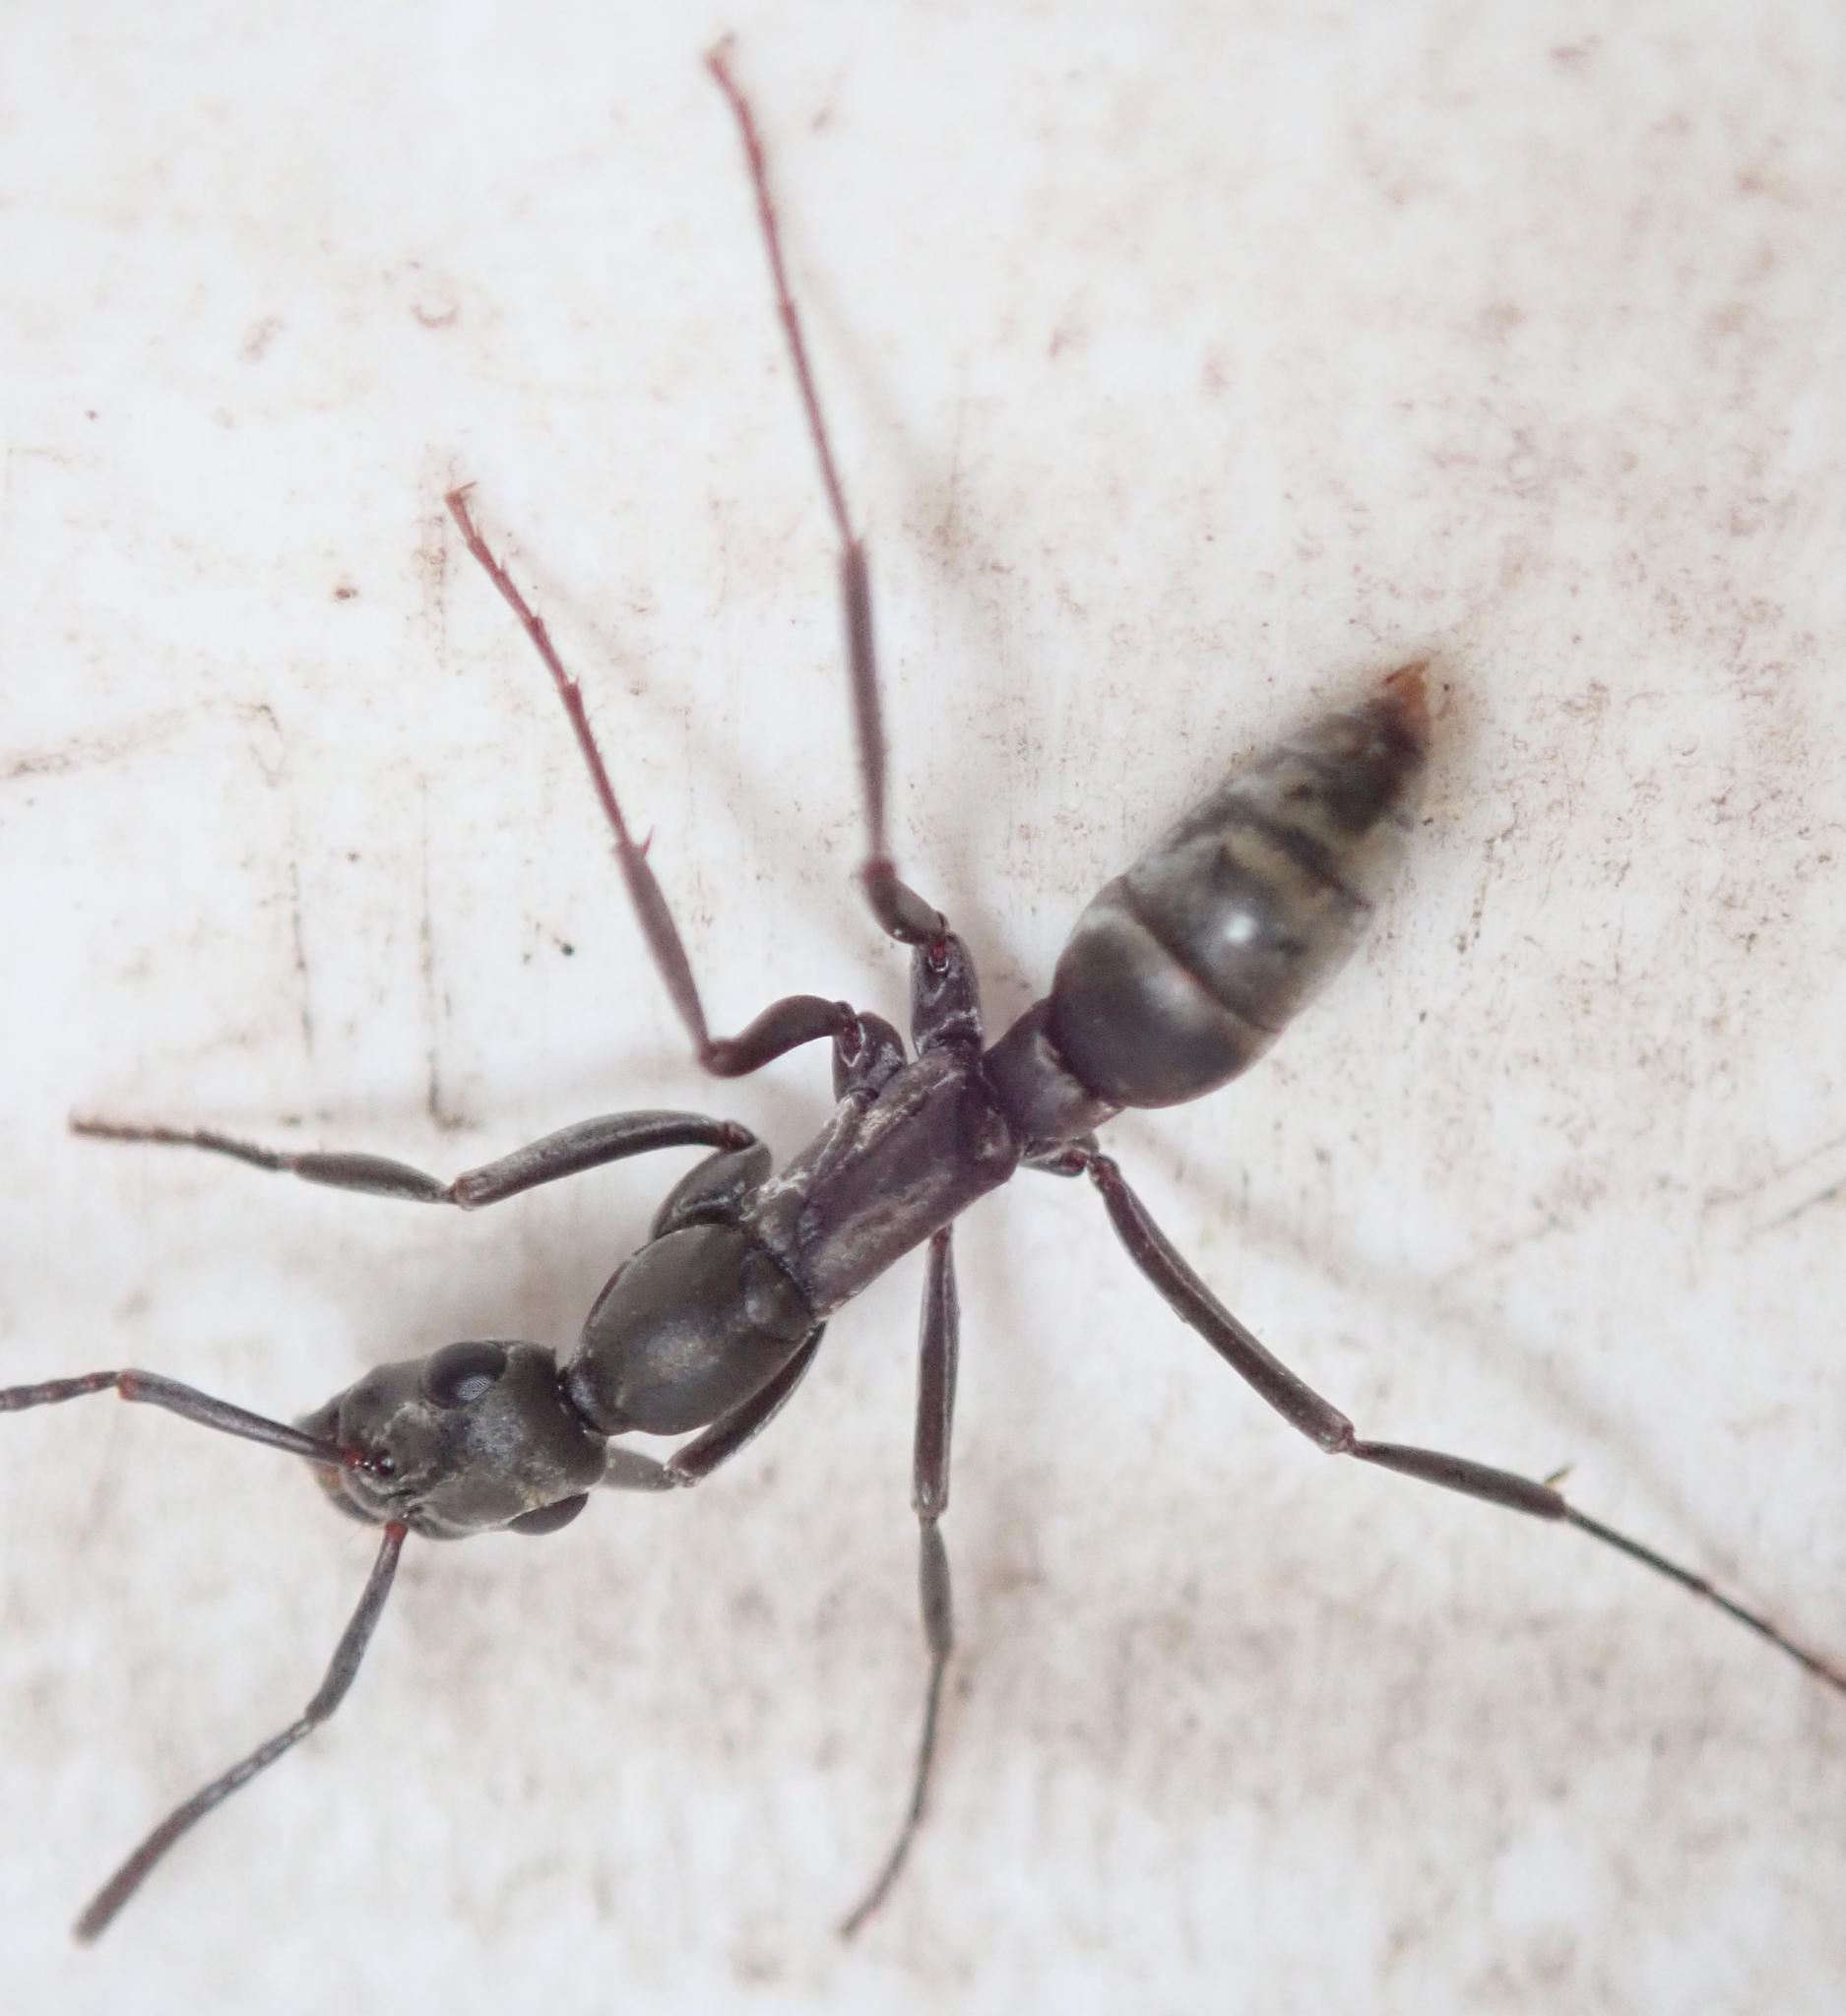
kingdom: Animalia
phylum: Arthropoda
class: Insecta
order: Hymenoptera
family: Formicidae
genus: Bothroponera
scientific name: Bothroponera berthoudi
